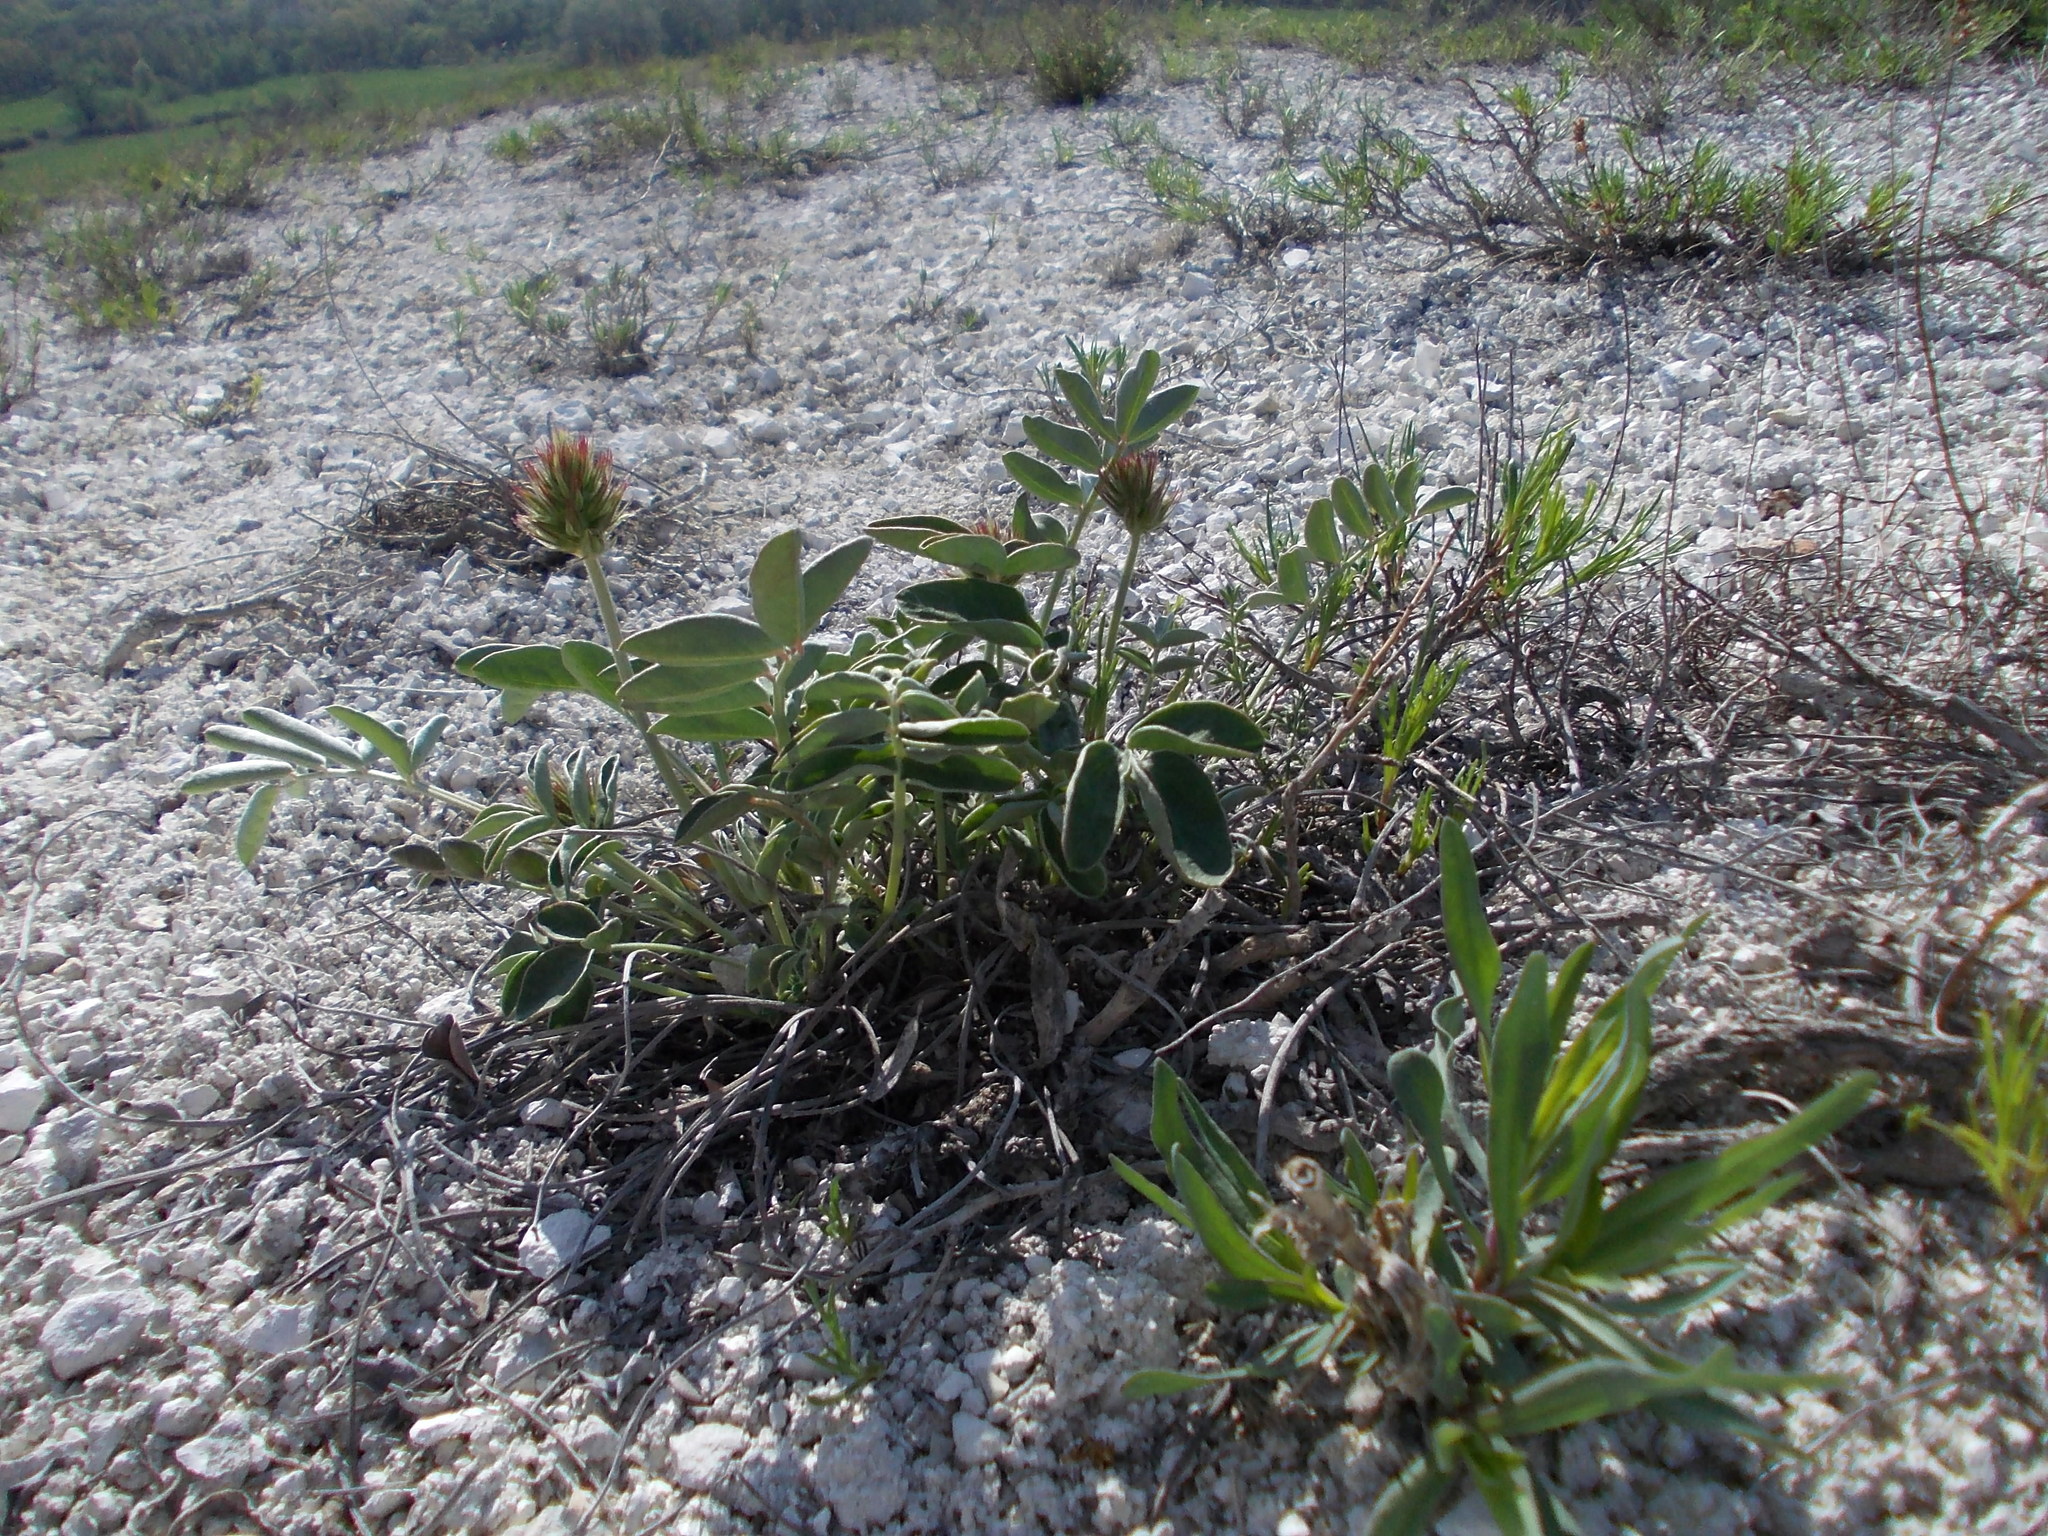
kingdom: Plantae
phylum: Tracheophyta
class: Magnoliopsida
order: Fabales
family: Fabaceae
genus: Hedysarum
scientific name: Hedysarum grandiflorum
